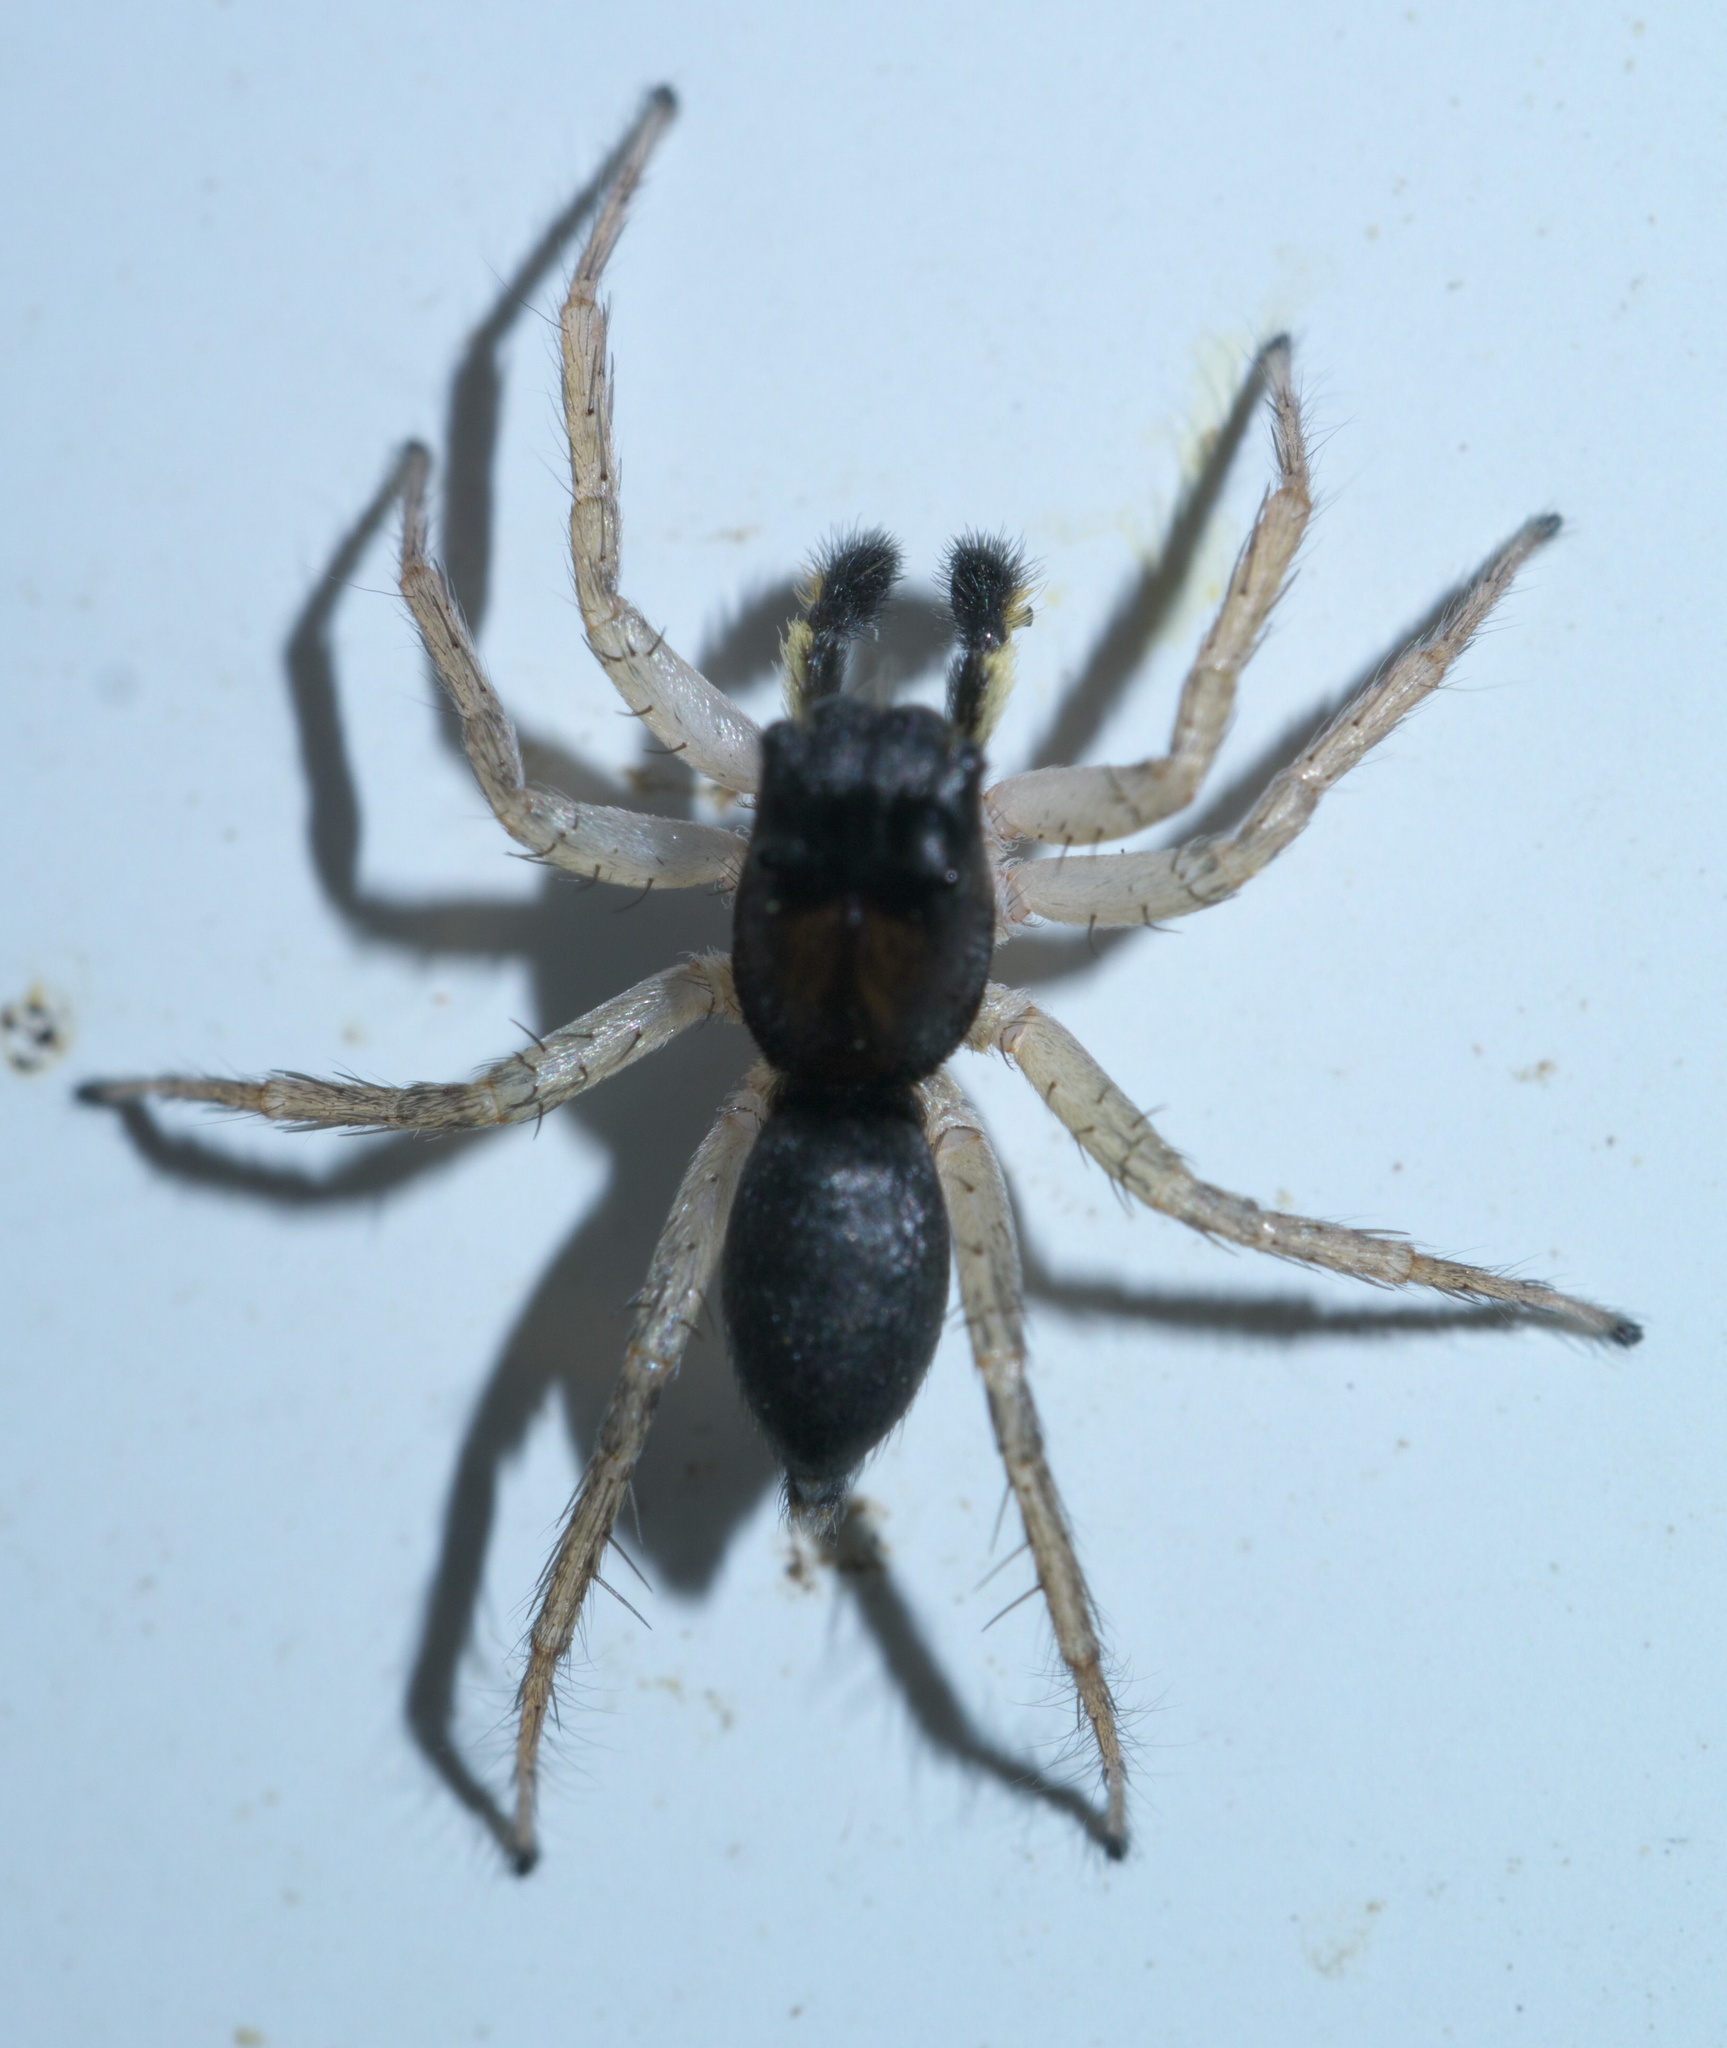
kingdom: Animalia
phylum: Arthropoda
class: Arachnida
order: Araneae
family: Salticidae
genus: Maevia
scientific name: Maevia inclemens
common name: Dimorphic jumper
